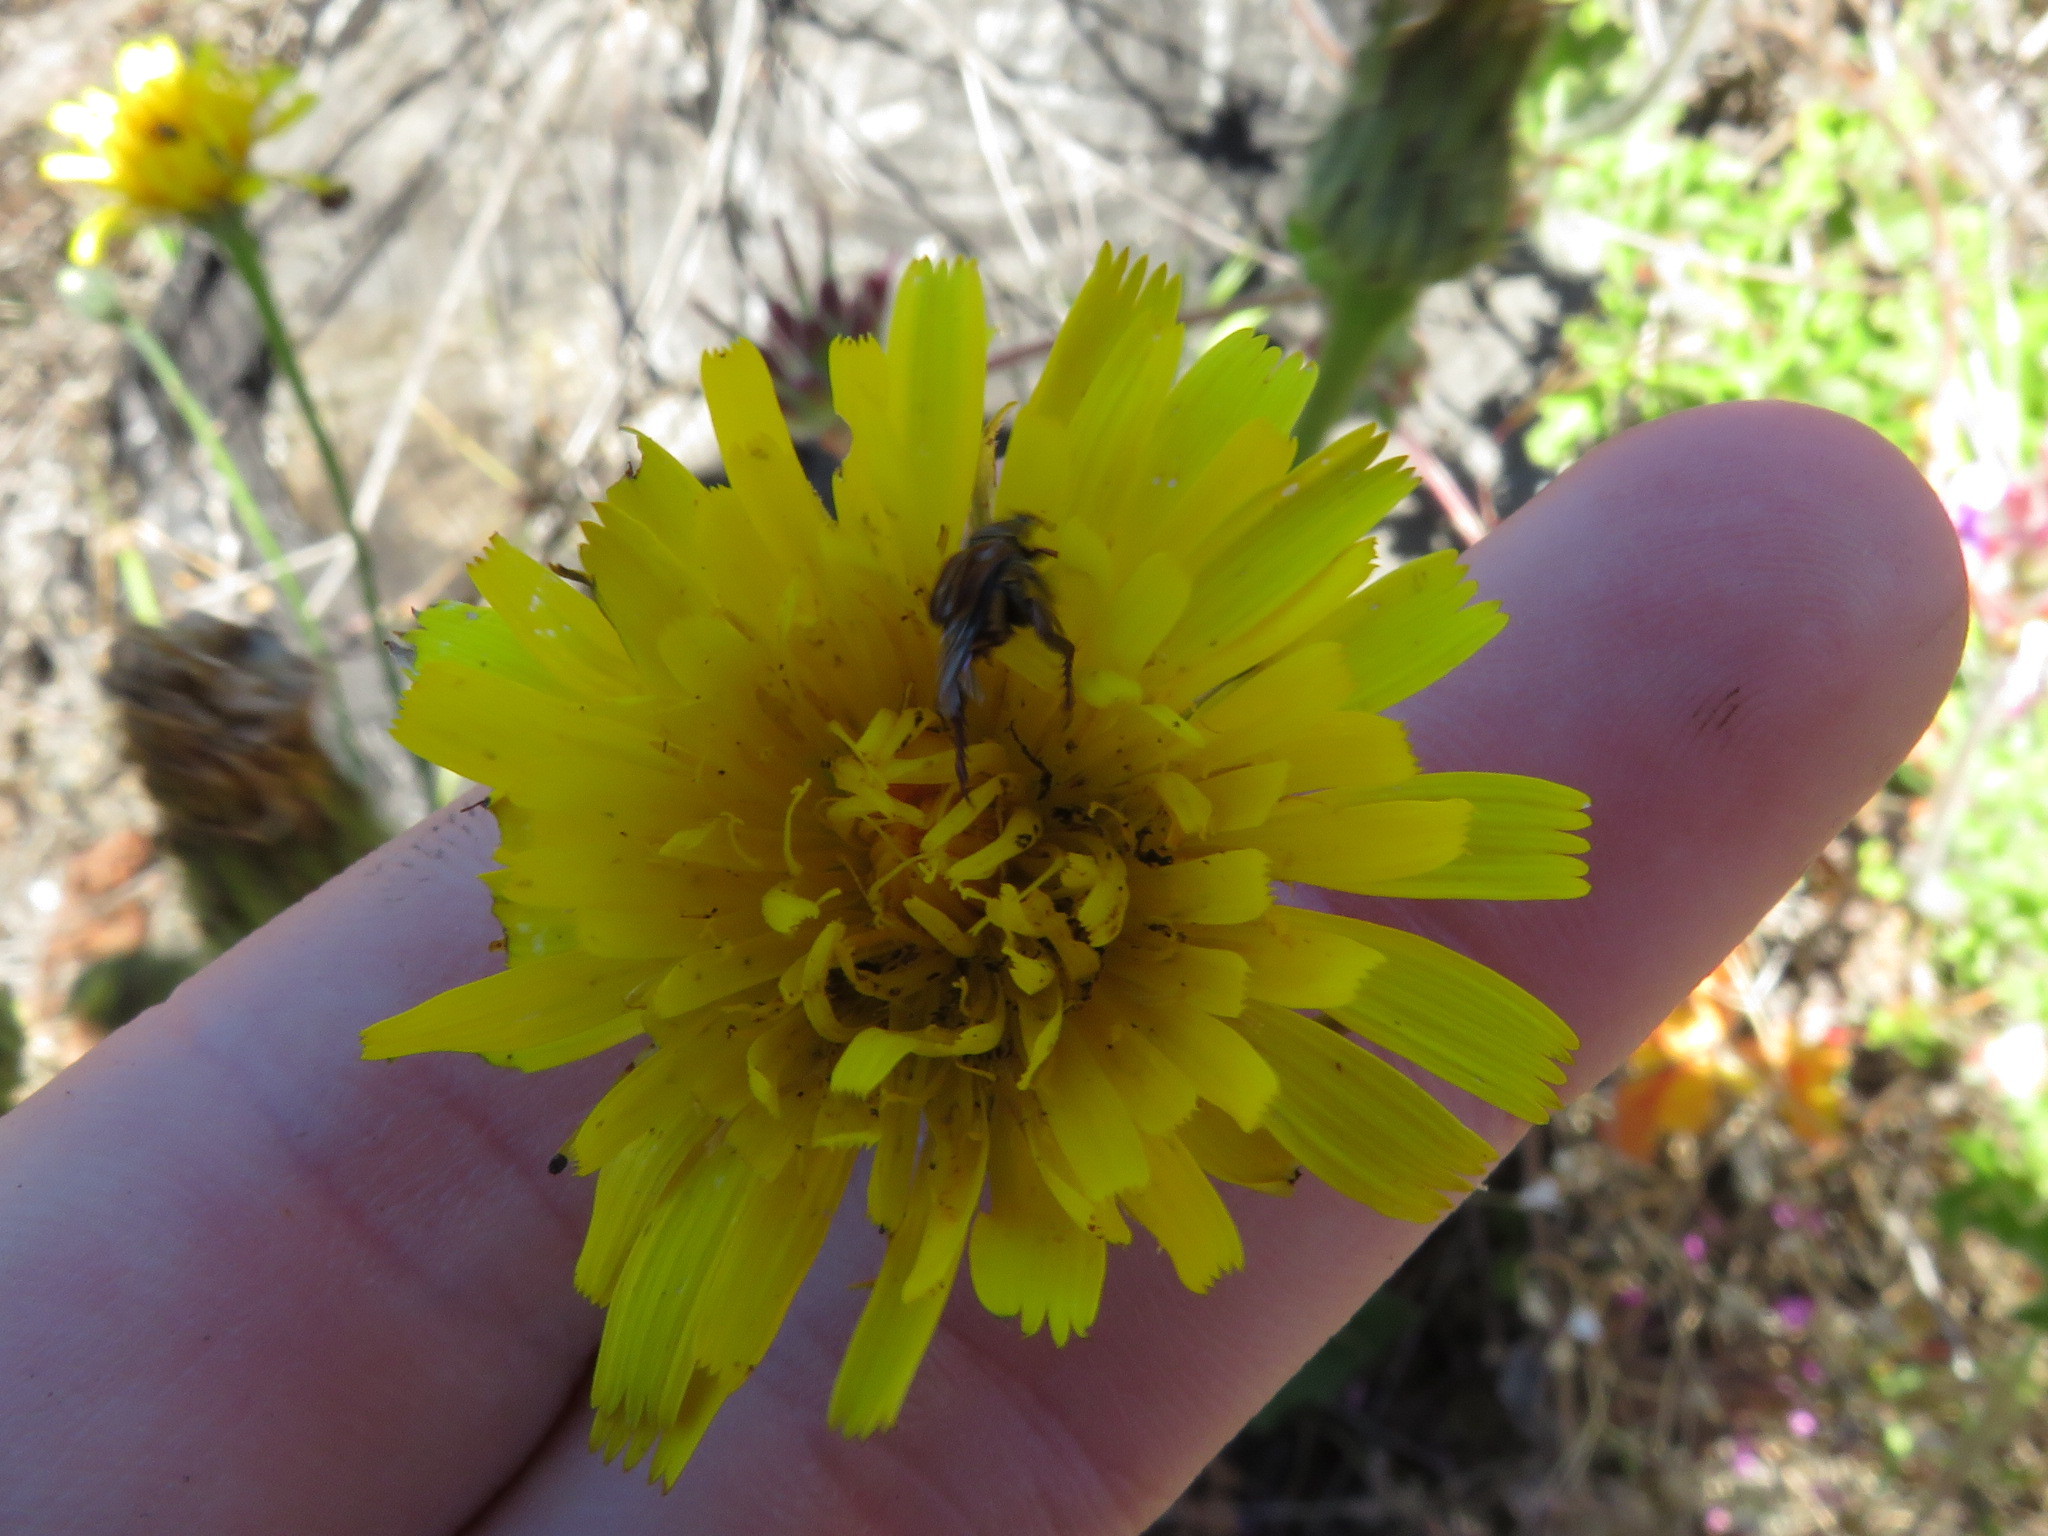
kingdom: Plantae
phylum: Tracheophyta
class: Magnoliopsida
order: Asterales
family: Asteraceae
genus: Hypochaeris
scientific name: Hypochaeris radicata
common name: Flatweed
